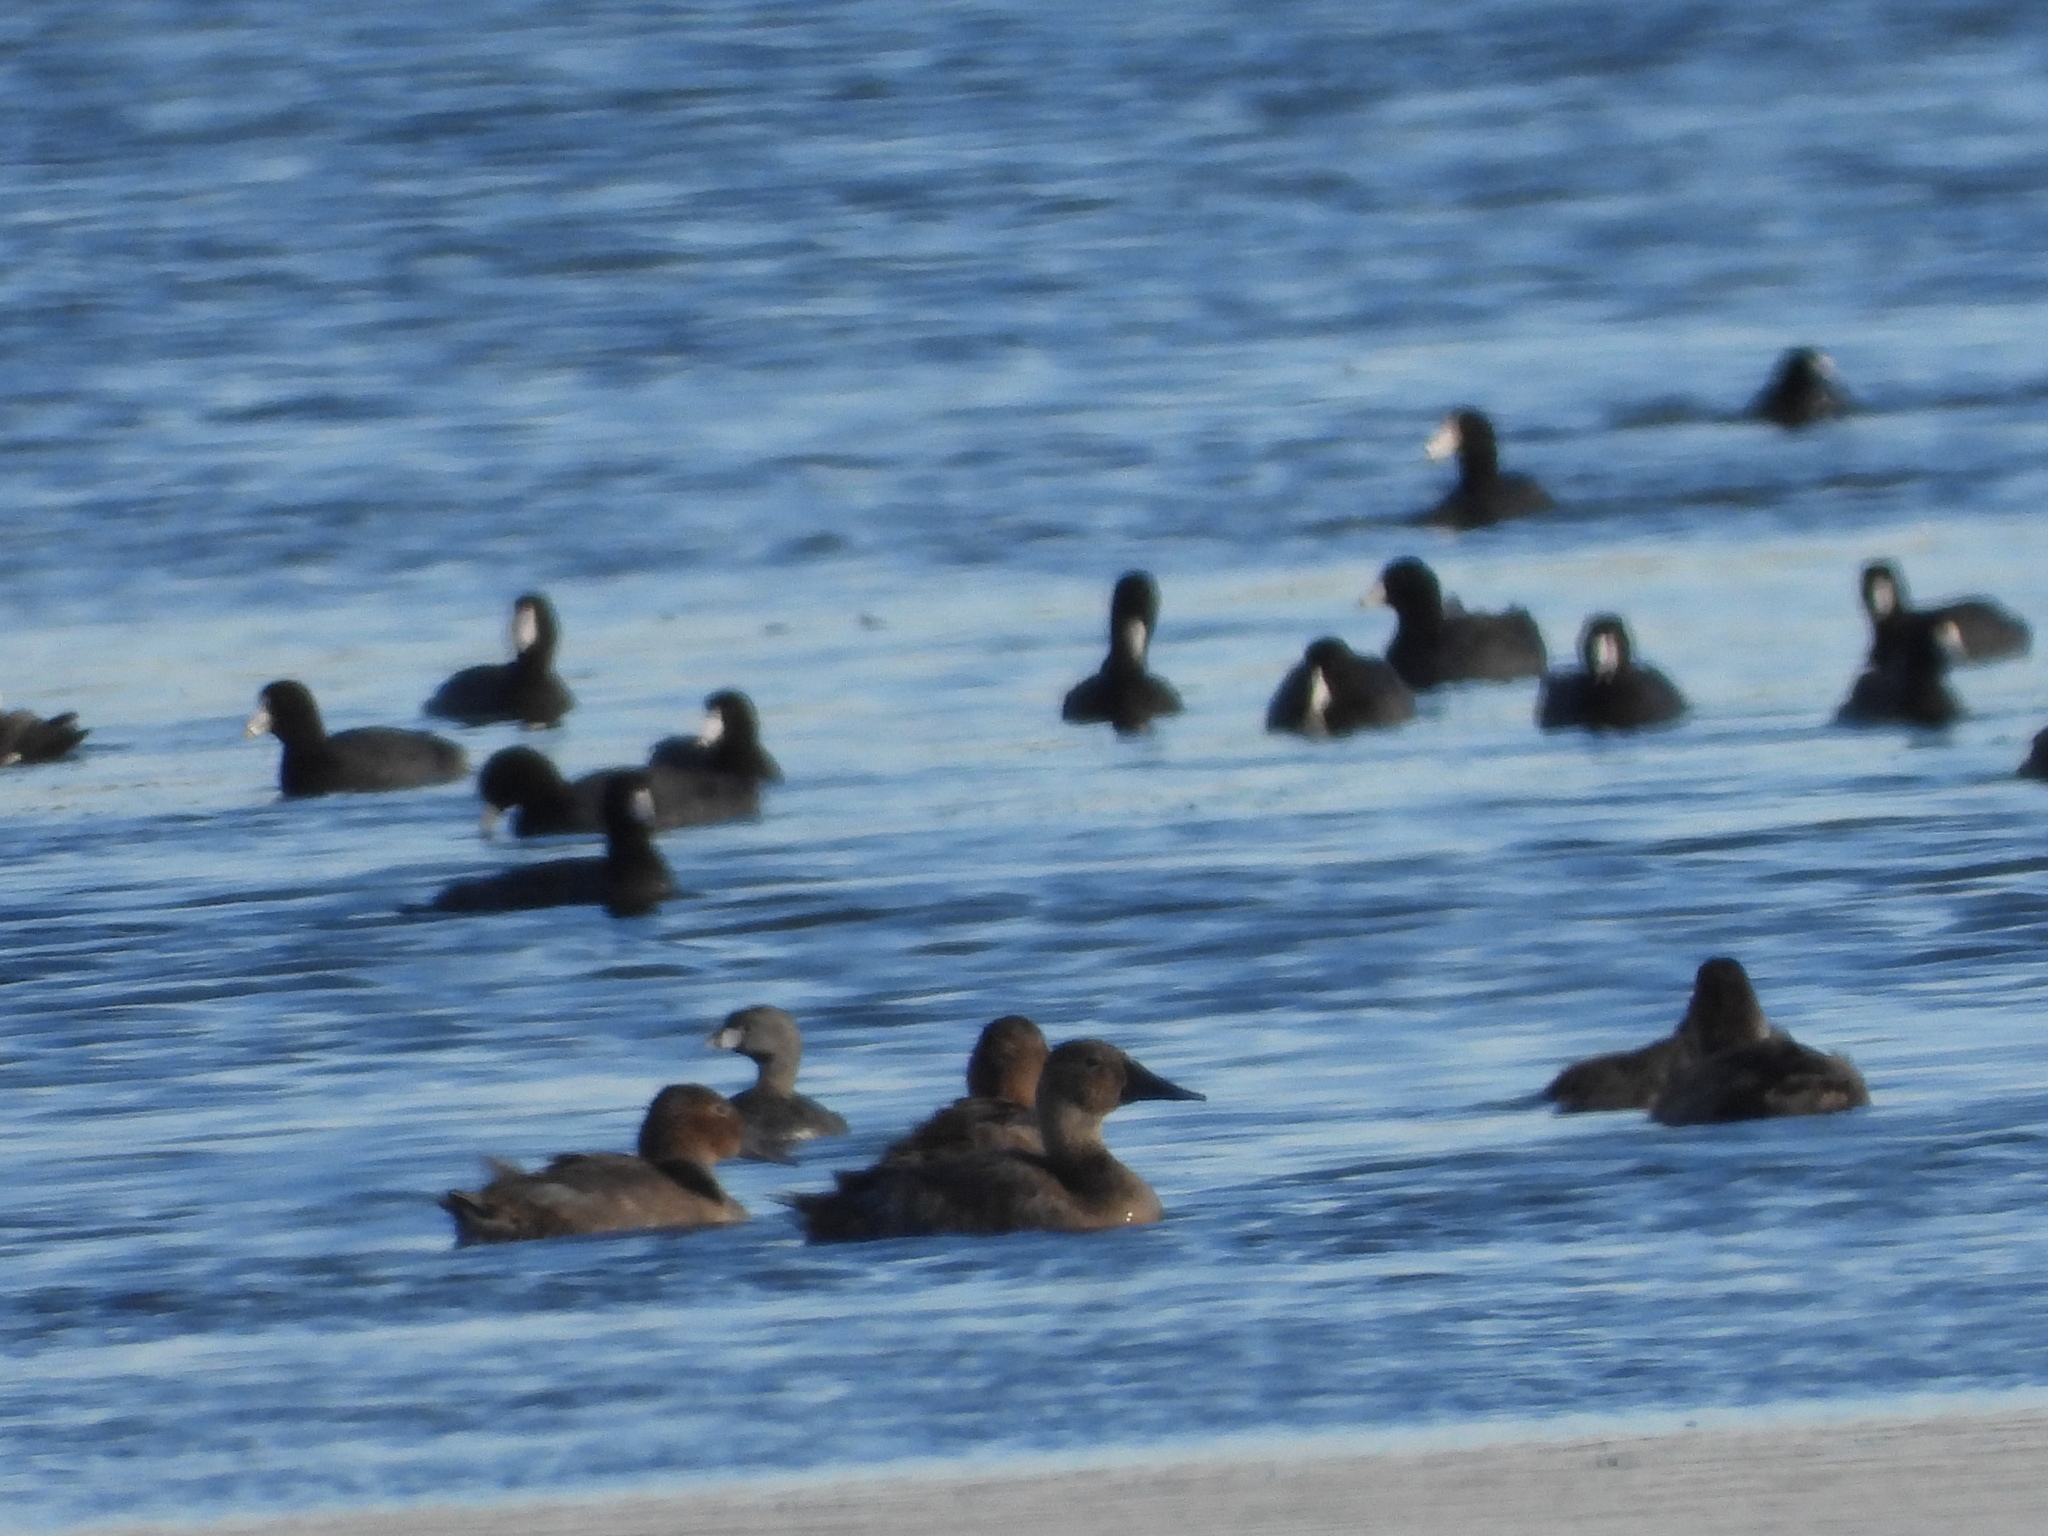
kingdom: Animalia
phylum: Chordata
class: Aves
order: Anseriformes
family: Anatidae
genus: Aythya
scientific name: Aythya valisineria
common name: Canvasback
